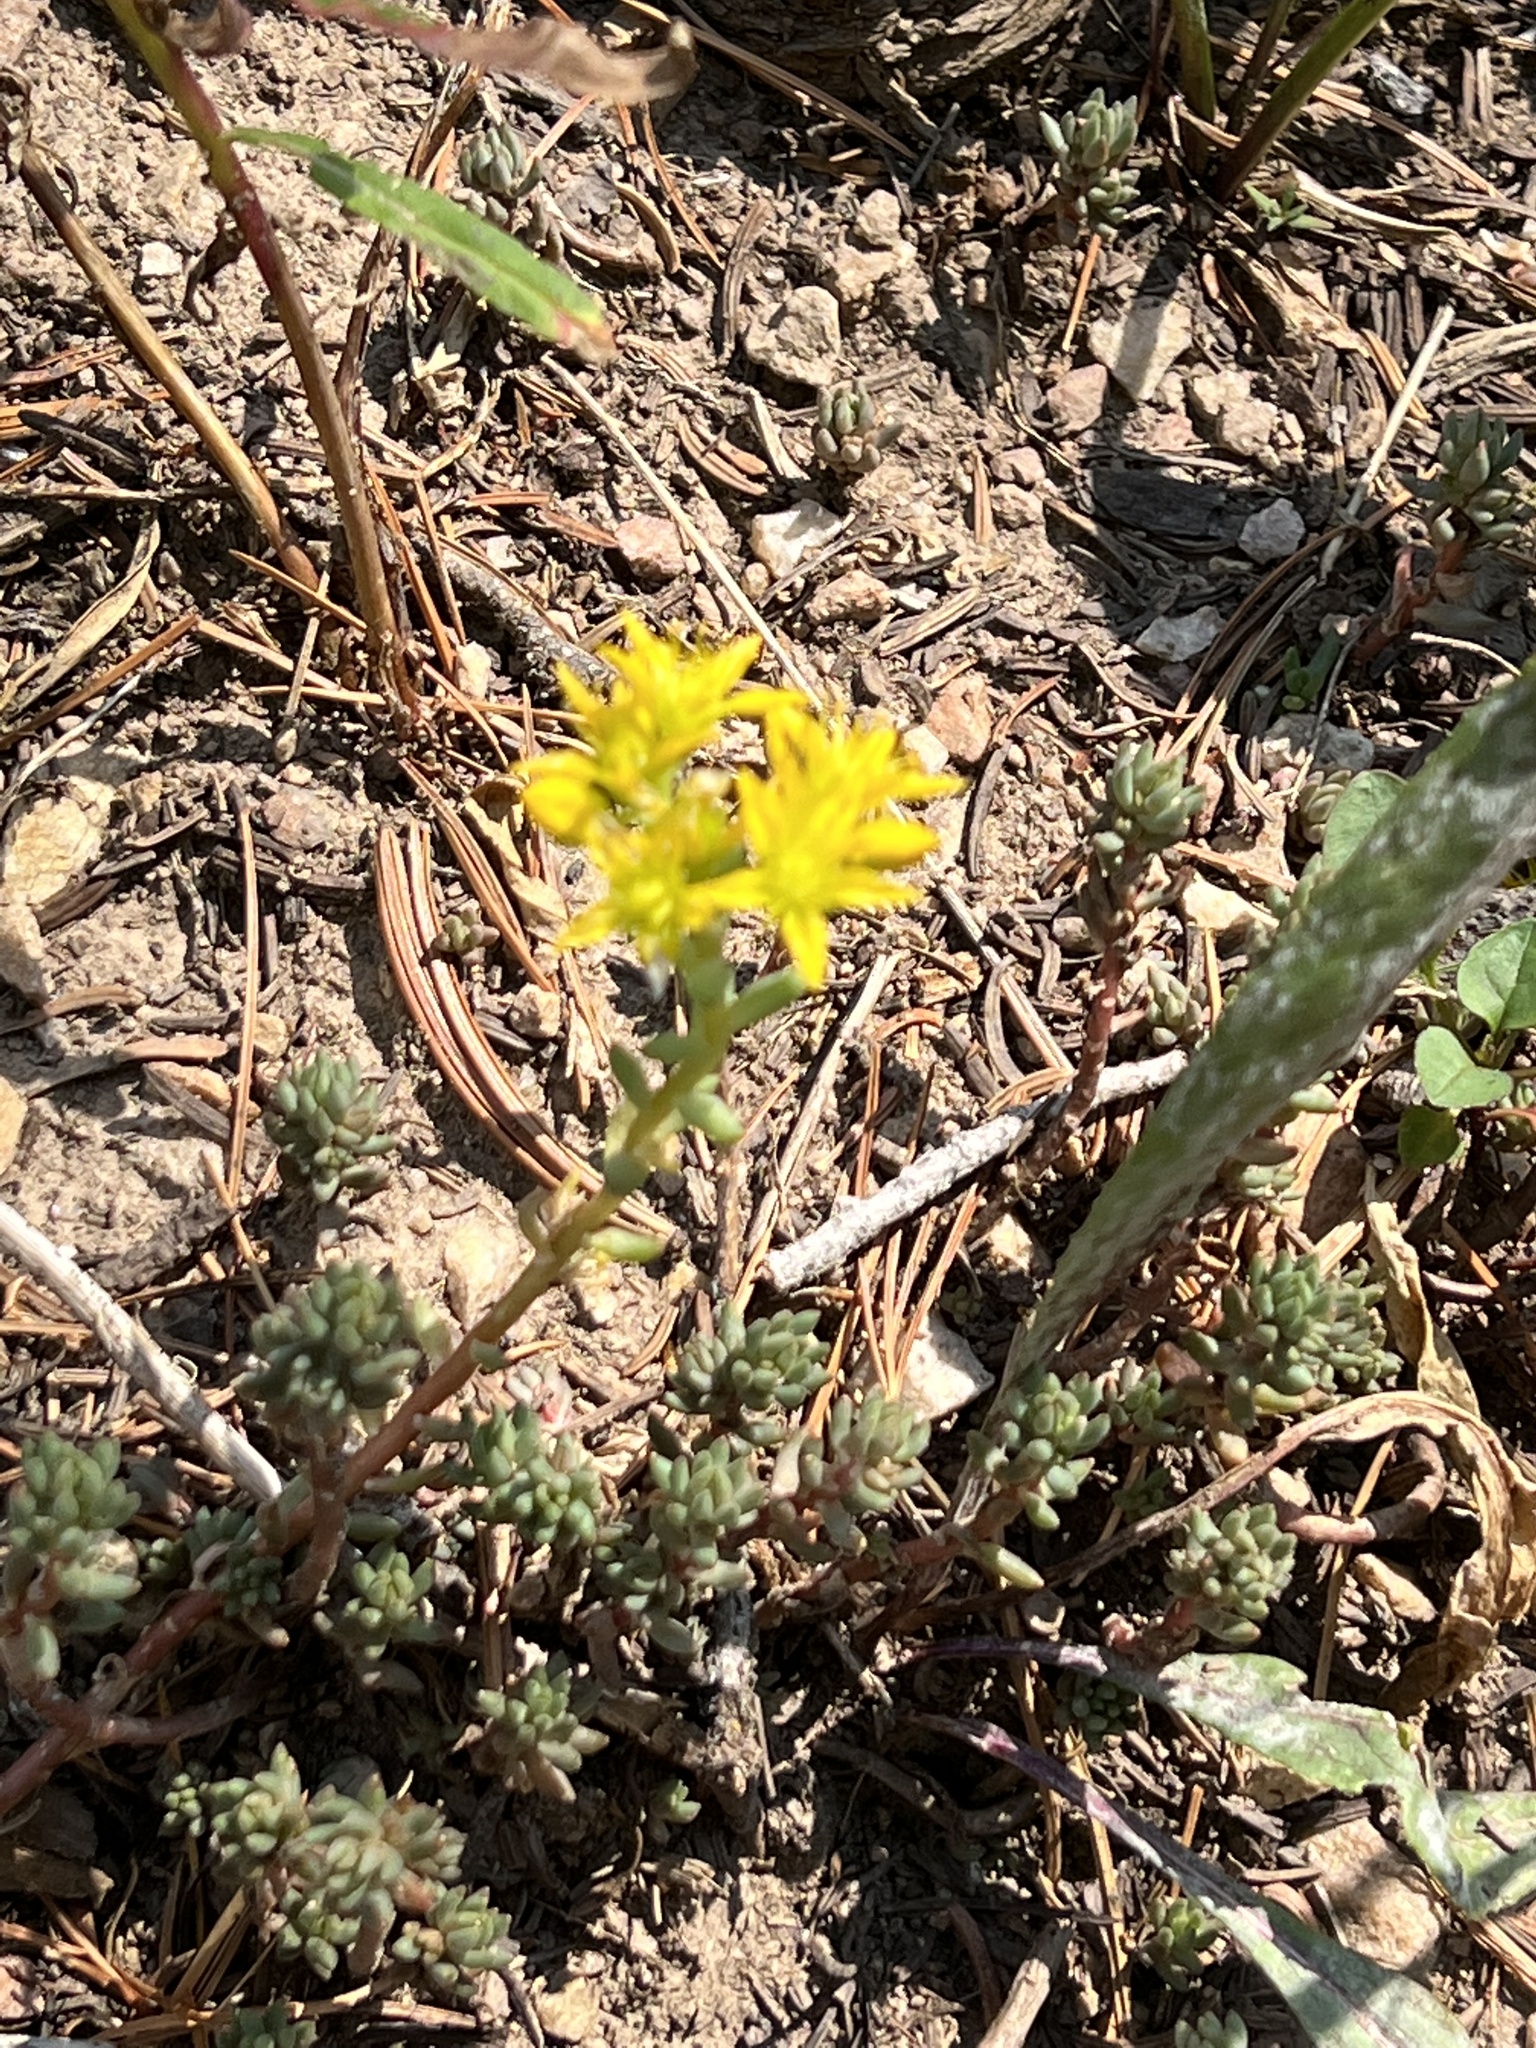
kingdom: Plantae
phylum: Tracheophyta
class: Magnoliopsida
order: Saxifragales
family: Crassulaceae
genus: Sedum
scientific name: Sedum lanceolatum
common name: Common stonecrop
